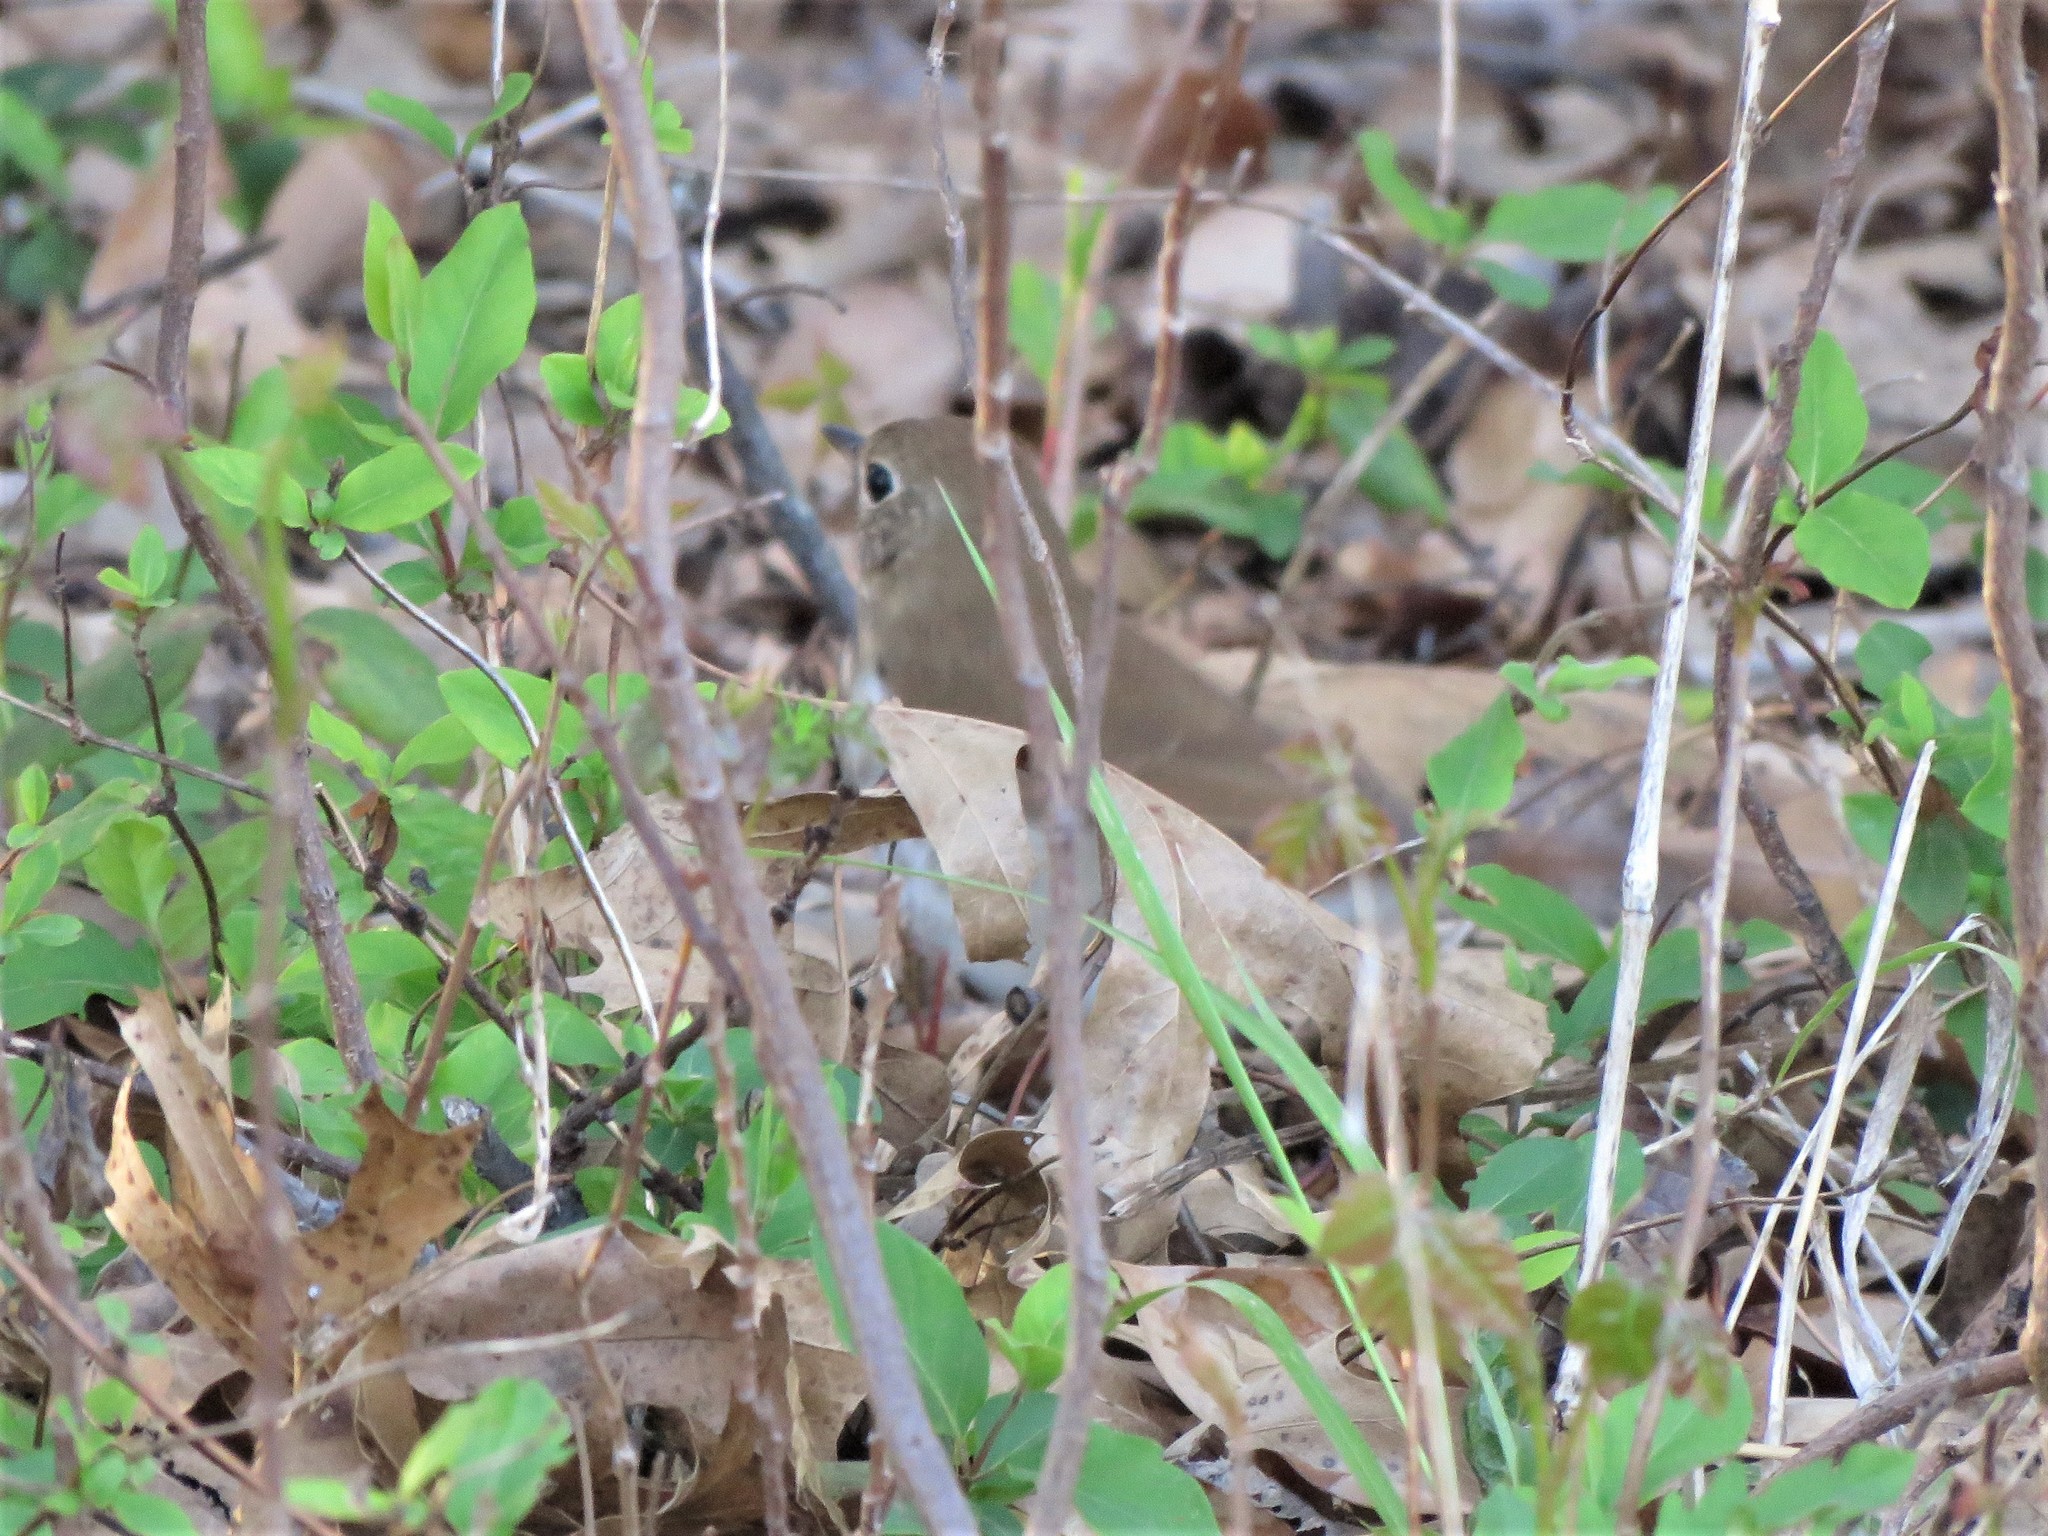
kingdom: Animalia
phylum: Chordata
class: Aves
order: Passeriformes
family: Turdidae
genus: Catharus
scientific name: Catharus guttatus
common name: Hermit thrush
